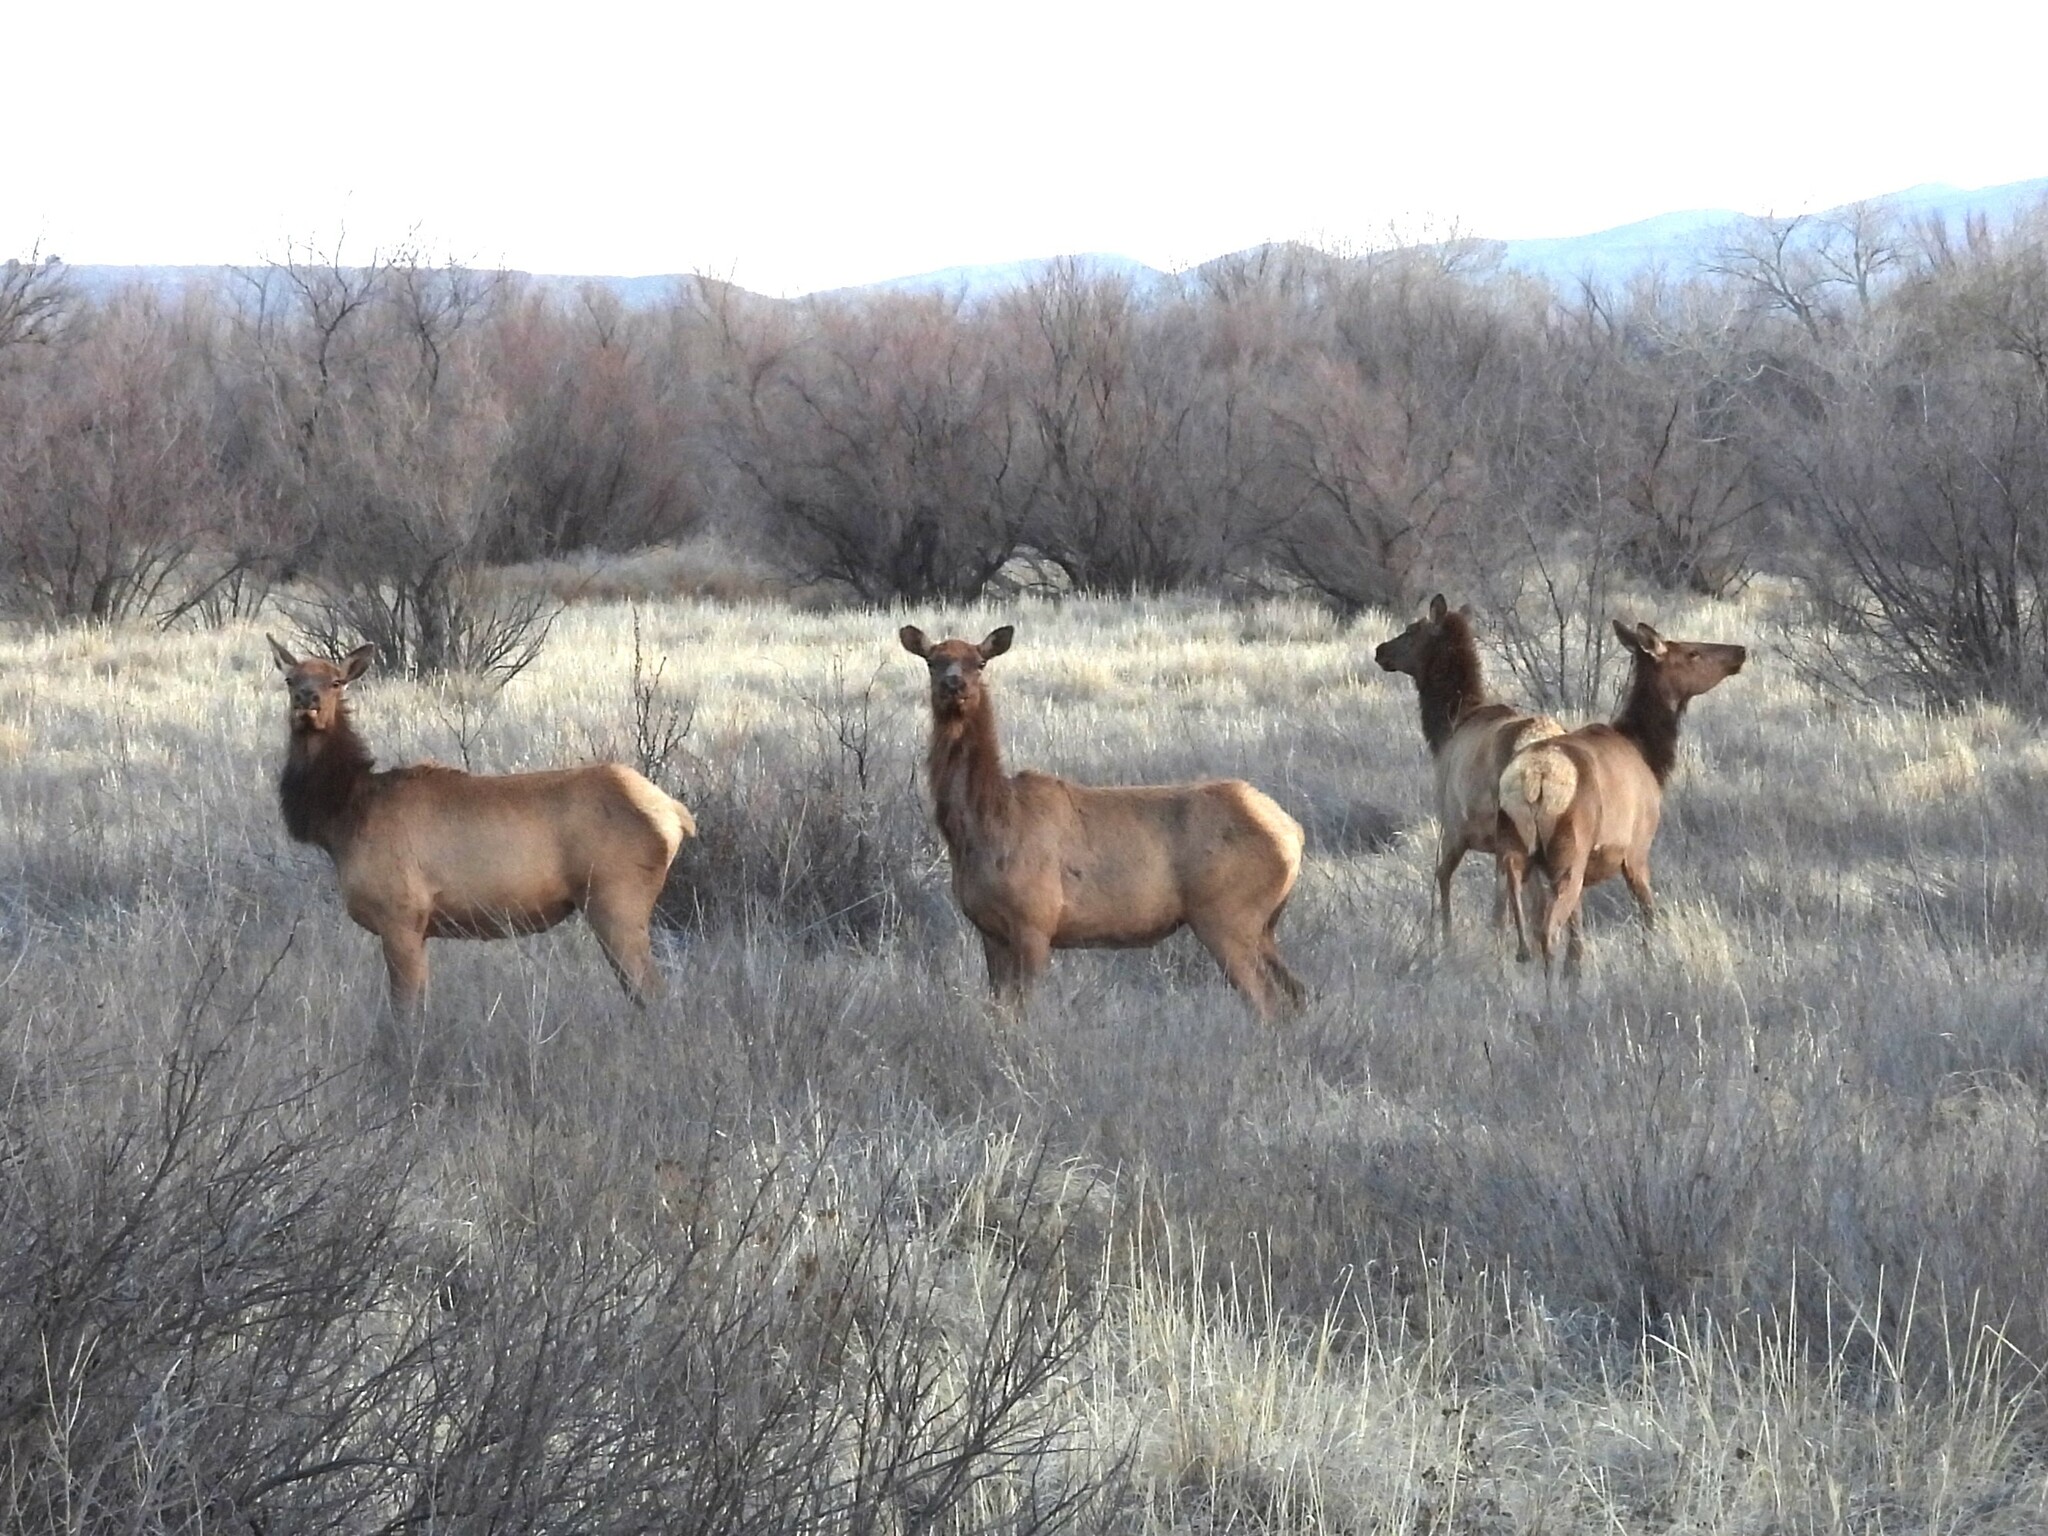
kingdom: Animalia
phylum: Chordata
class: Mammalia
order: Artiodactyla
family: Cervidae
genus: Cervus
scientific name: Cervus elaphus
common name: Red deer
